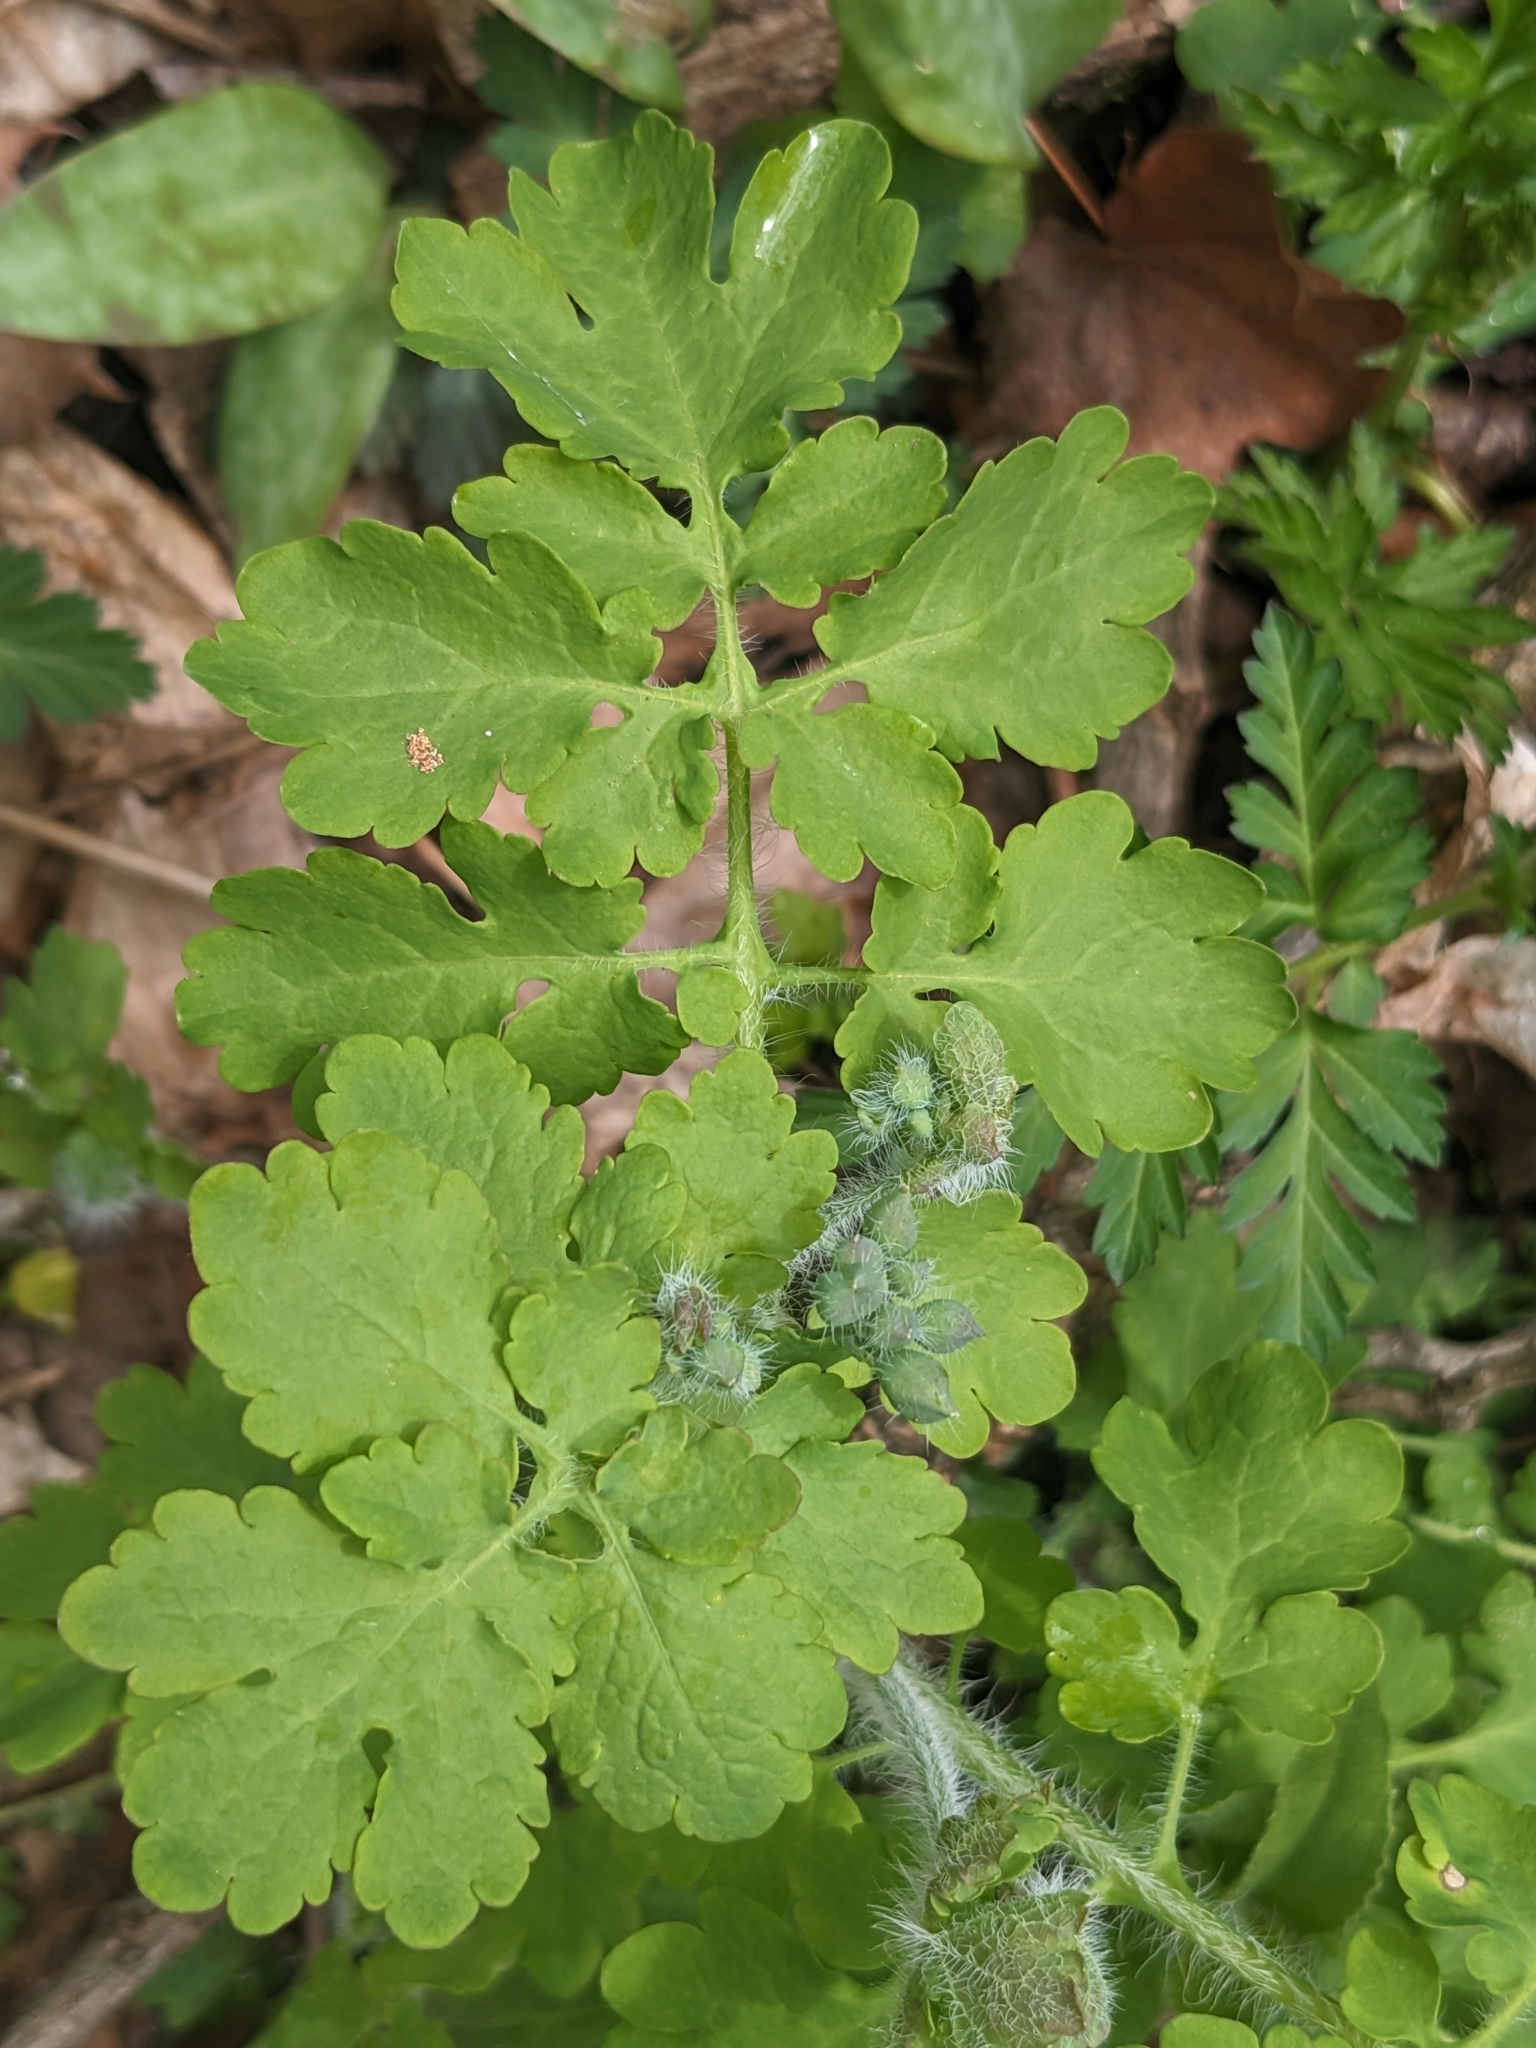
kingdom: Plantae
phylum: Tracheophyta
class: Magnoliopsida
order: Ranunculales
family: Papaveraceae
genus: Chelidonium
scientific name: Chelidonium majus
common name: Greater celandine
